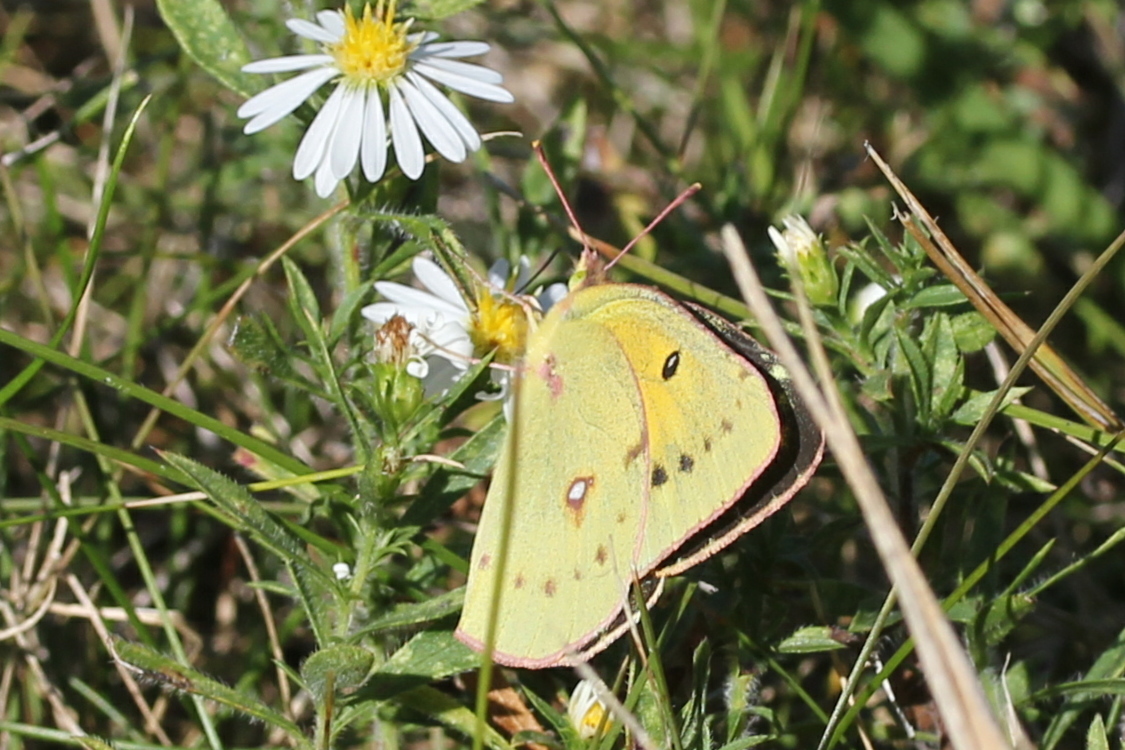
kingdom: Animalia
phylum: Arthropoda
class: Insecta
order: Lepidoptera
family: Pieridae
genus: Colias
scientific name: Colias eurytheme
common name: Alfalfa butterfly
